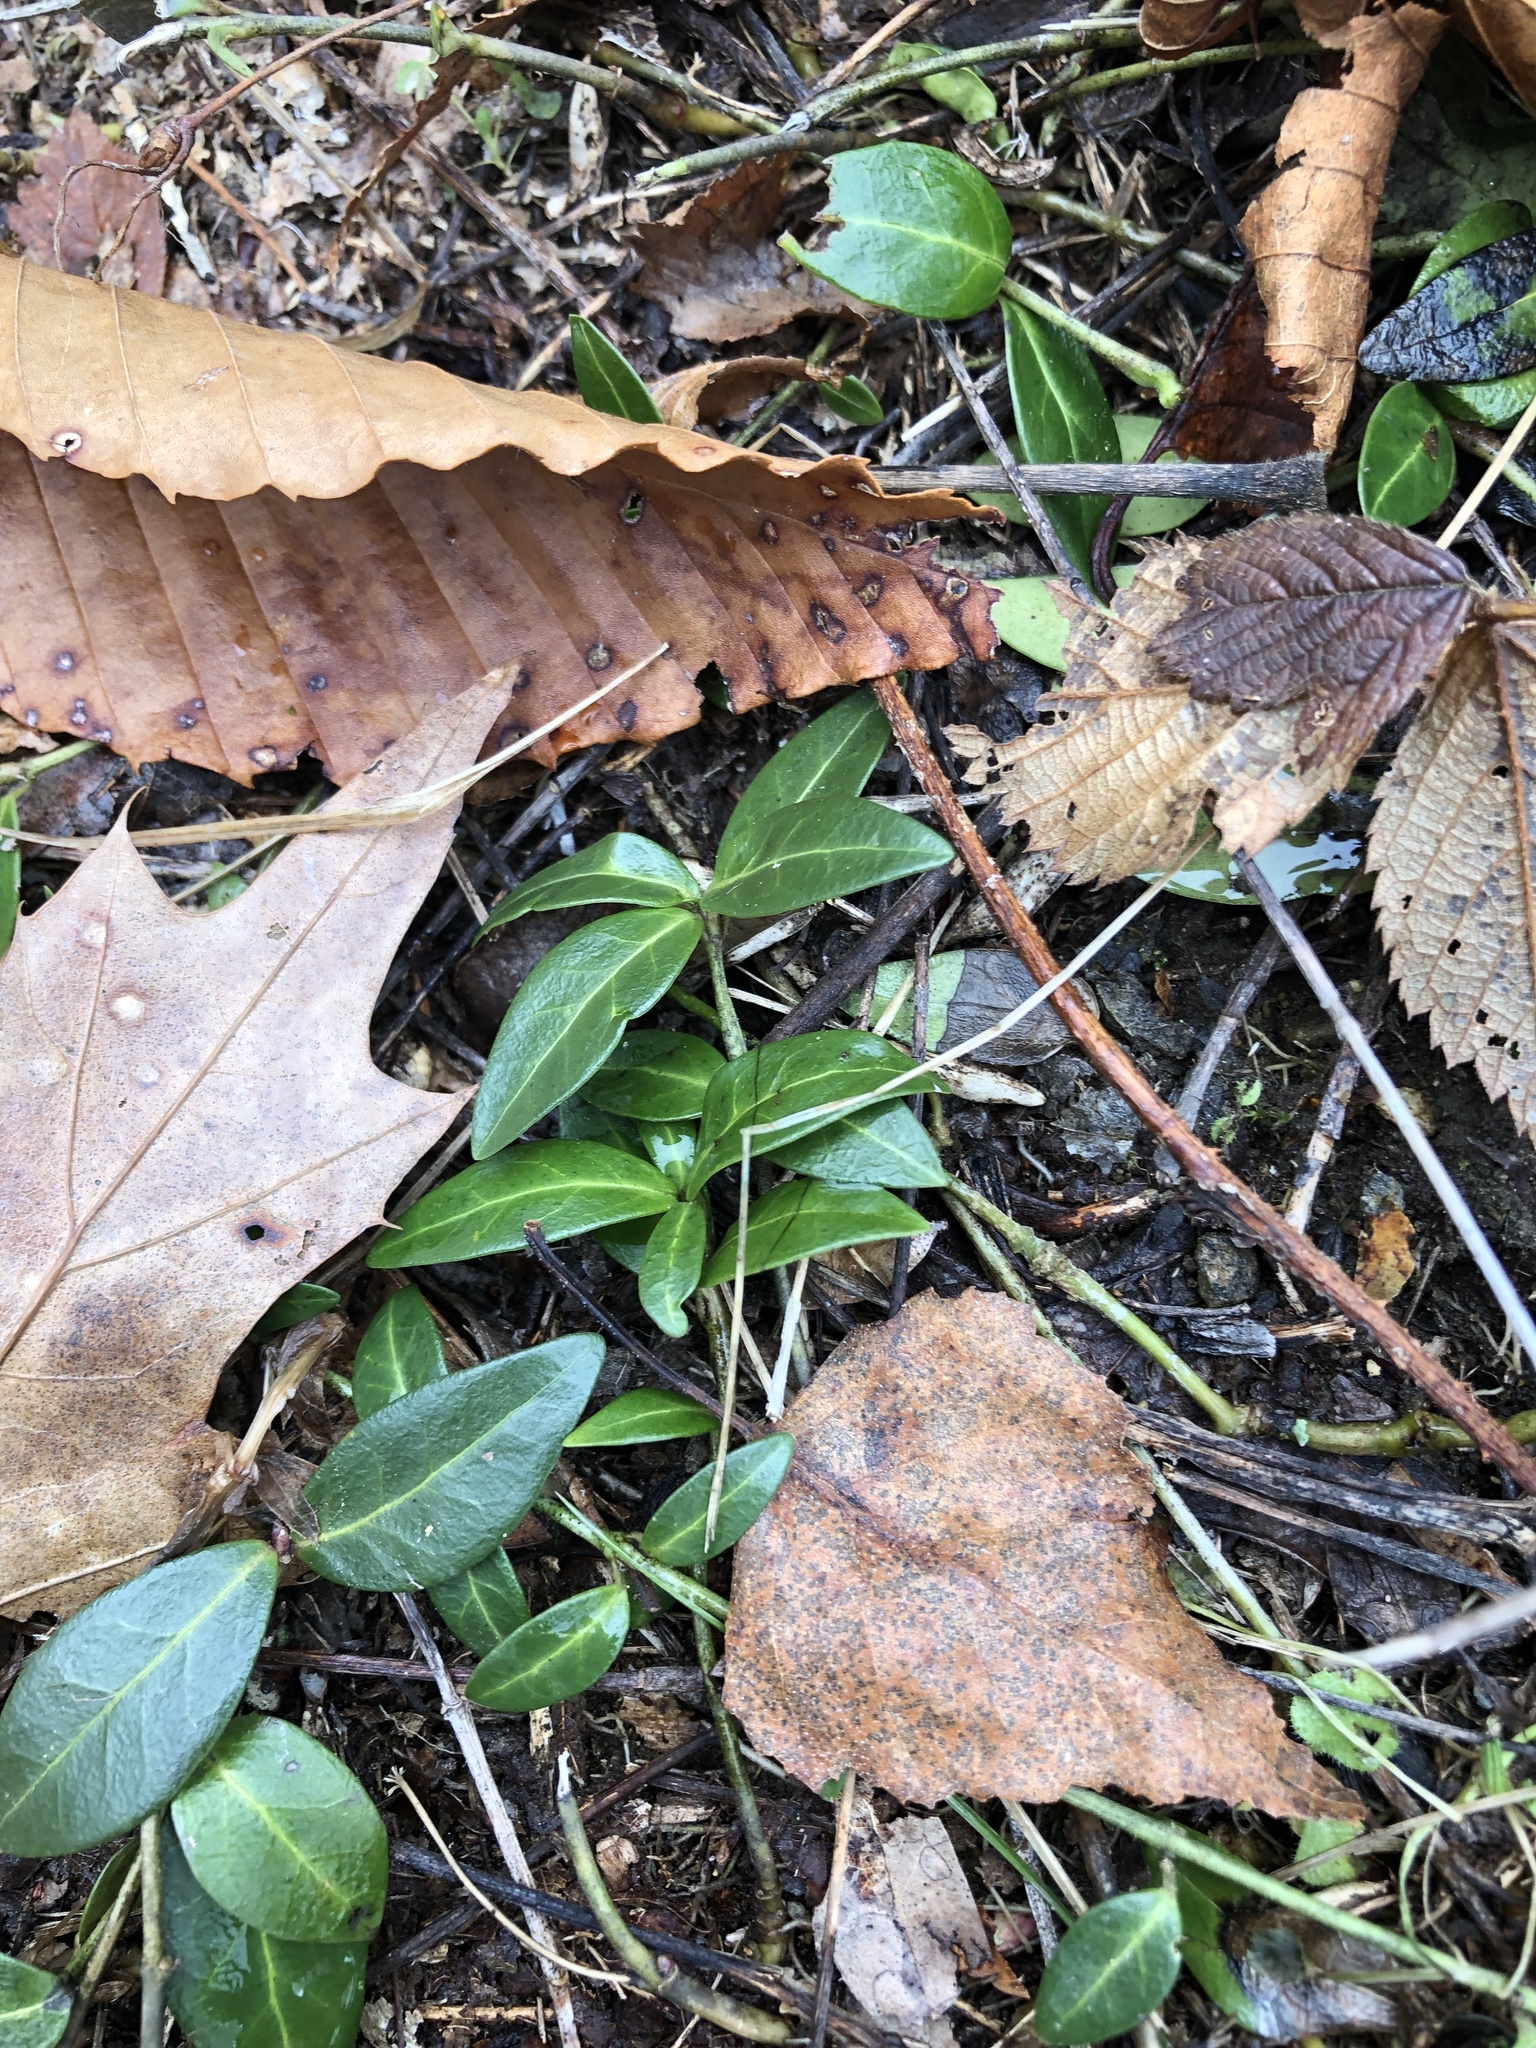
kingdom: Plantae
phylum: Tracheophyta
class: Magnoliopsida
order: Gentianales
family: Apocynaceae
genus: Vinca
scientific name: Vinca minor
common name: Lesser periwinkle
